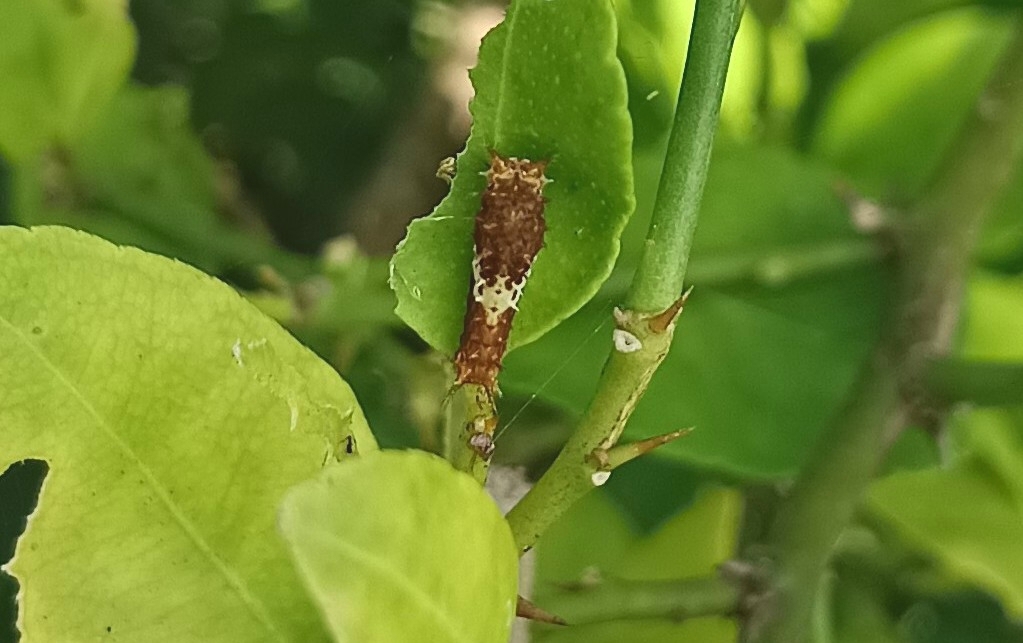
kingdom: Animalia
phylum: Arthropoda
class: Insecta
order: Lepidoptera
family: Papilionidae
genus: Papilio
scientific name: Papilio demoleus
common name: Lime butterfly
